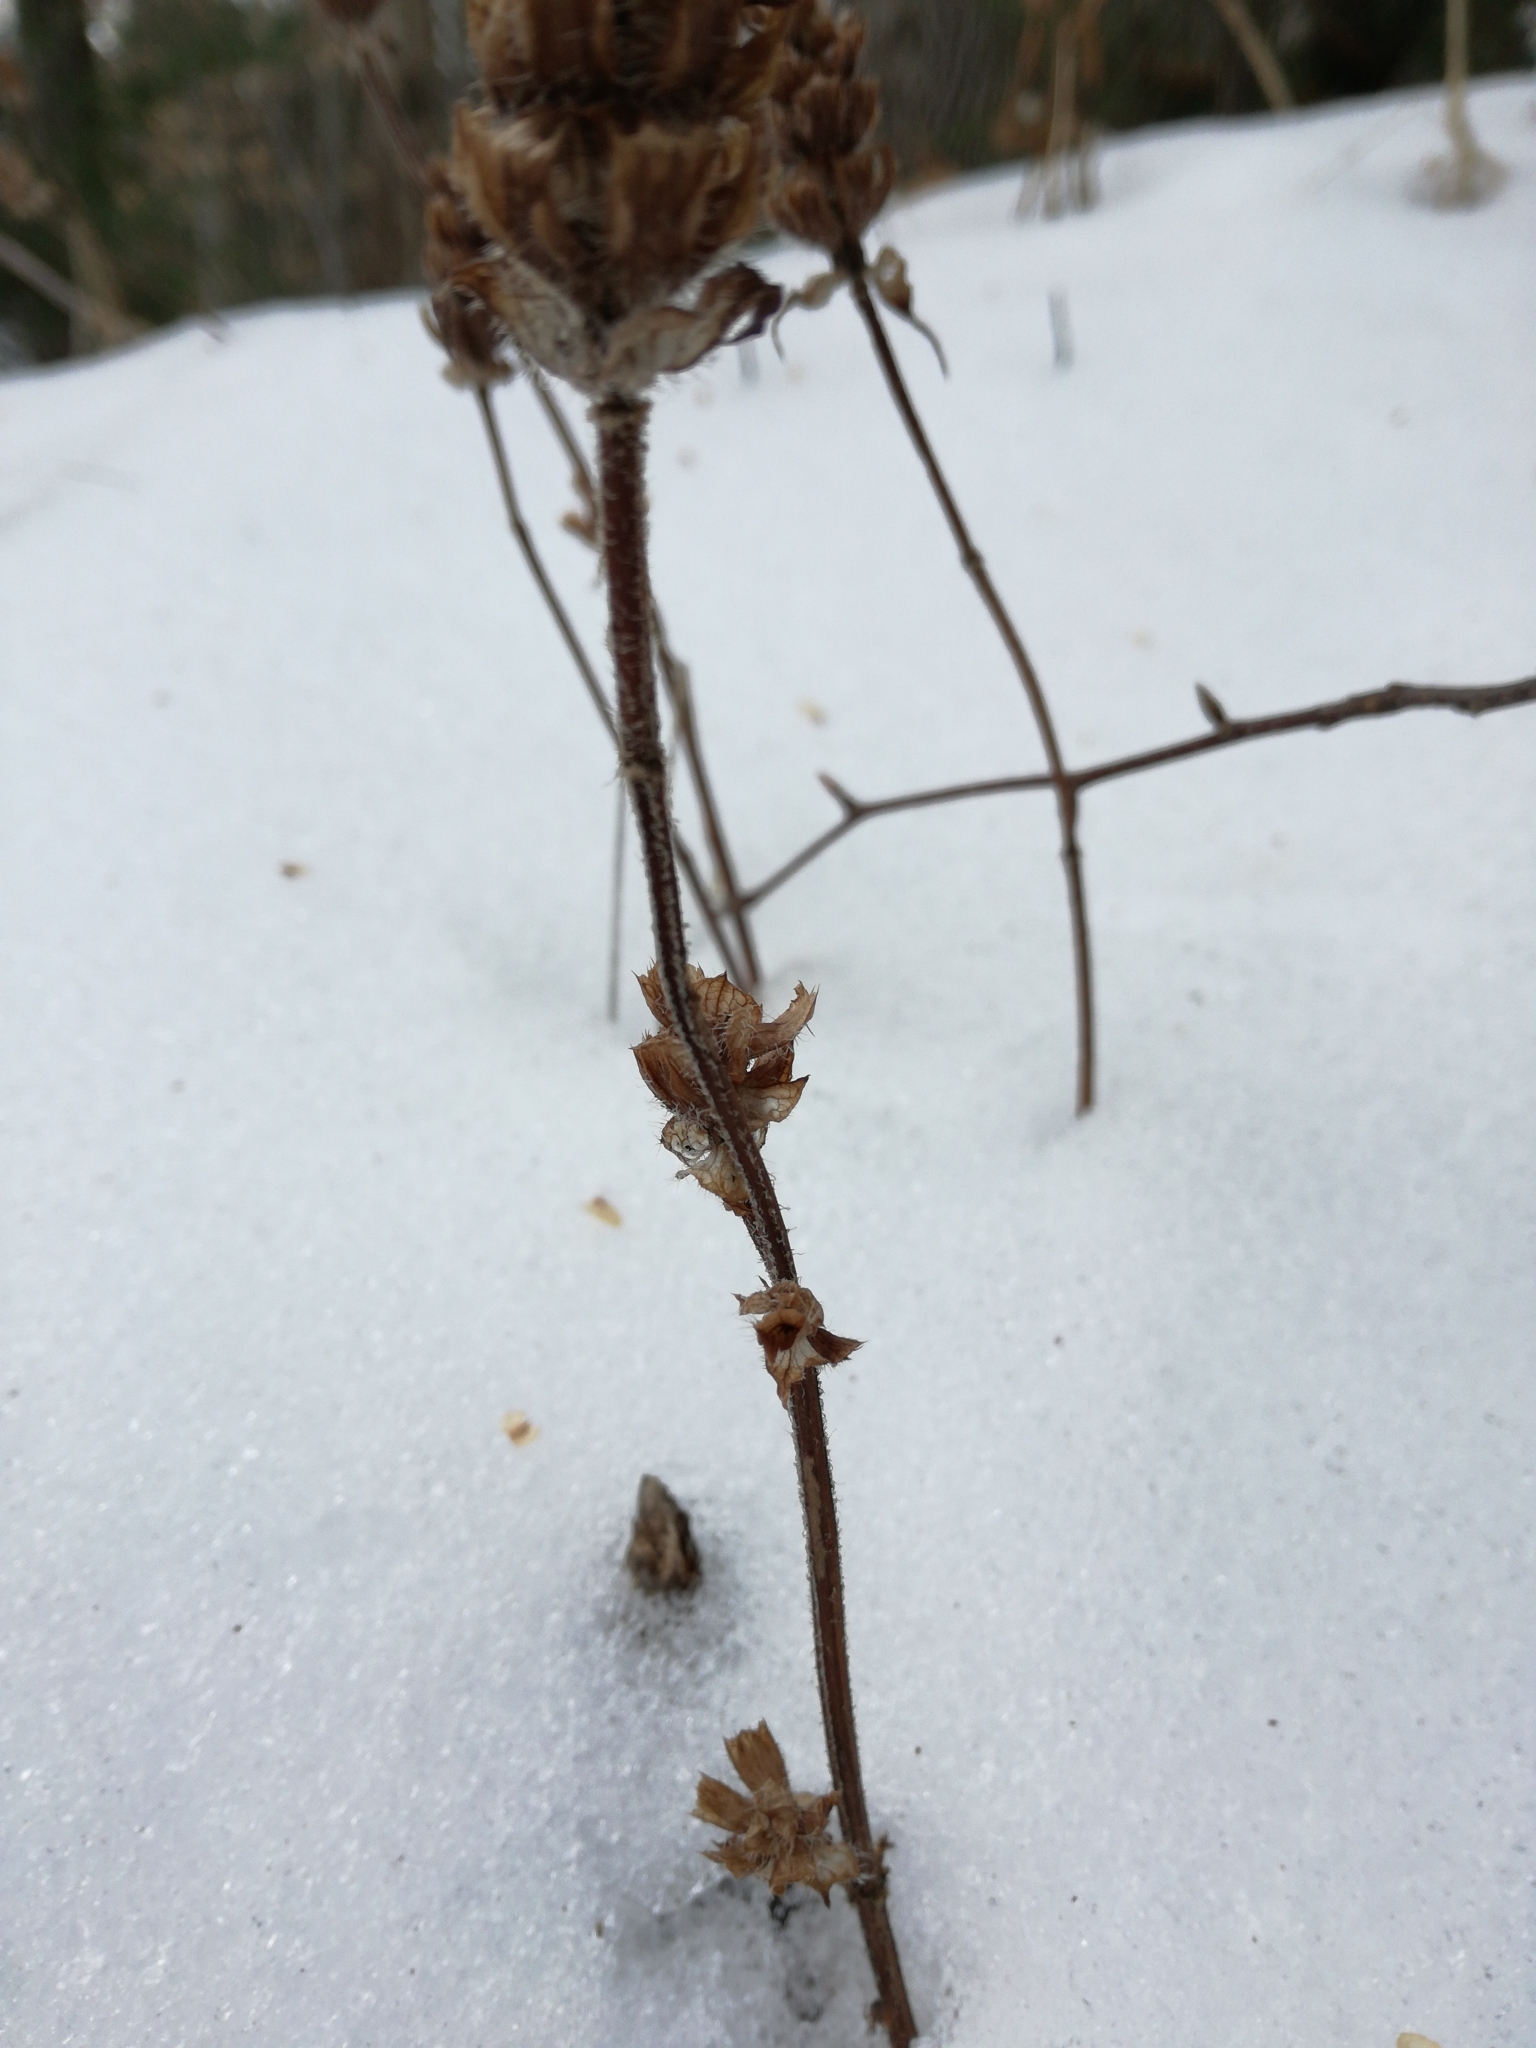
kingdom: Plantae
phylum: Tracheophyta
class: Magnoliopsida
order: Lamiales
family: Lamiaceae
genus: Prunella
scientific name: Prunella vulgaris
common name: Heal-all
